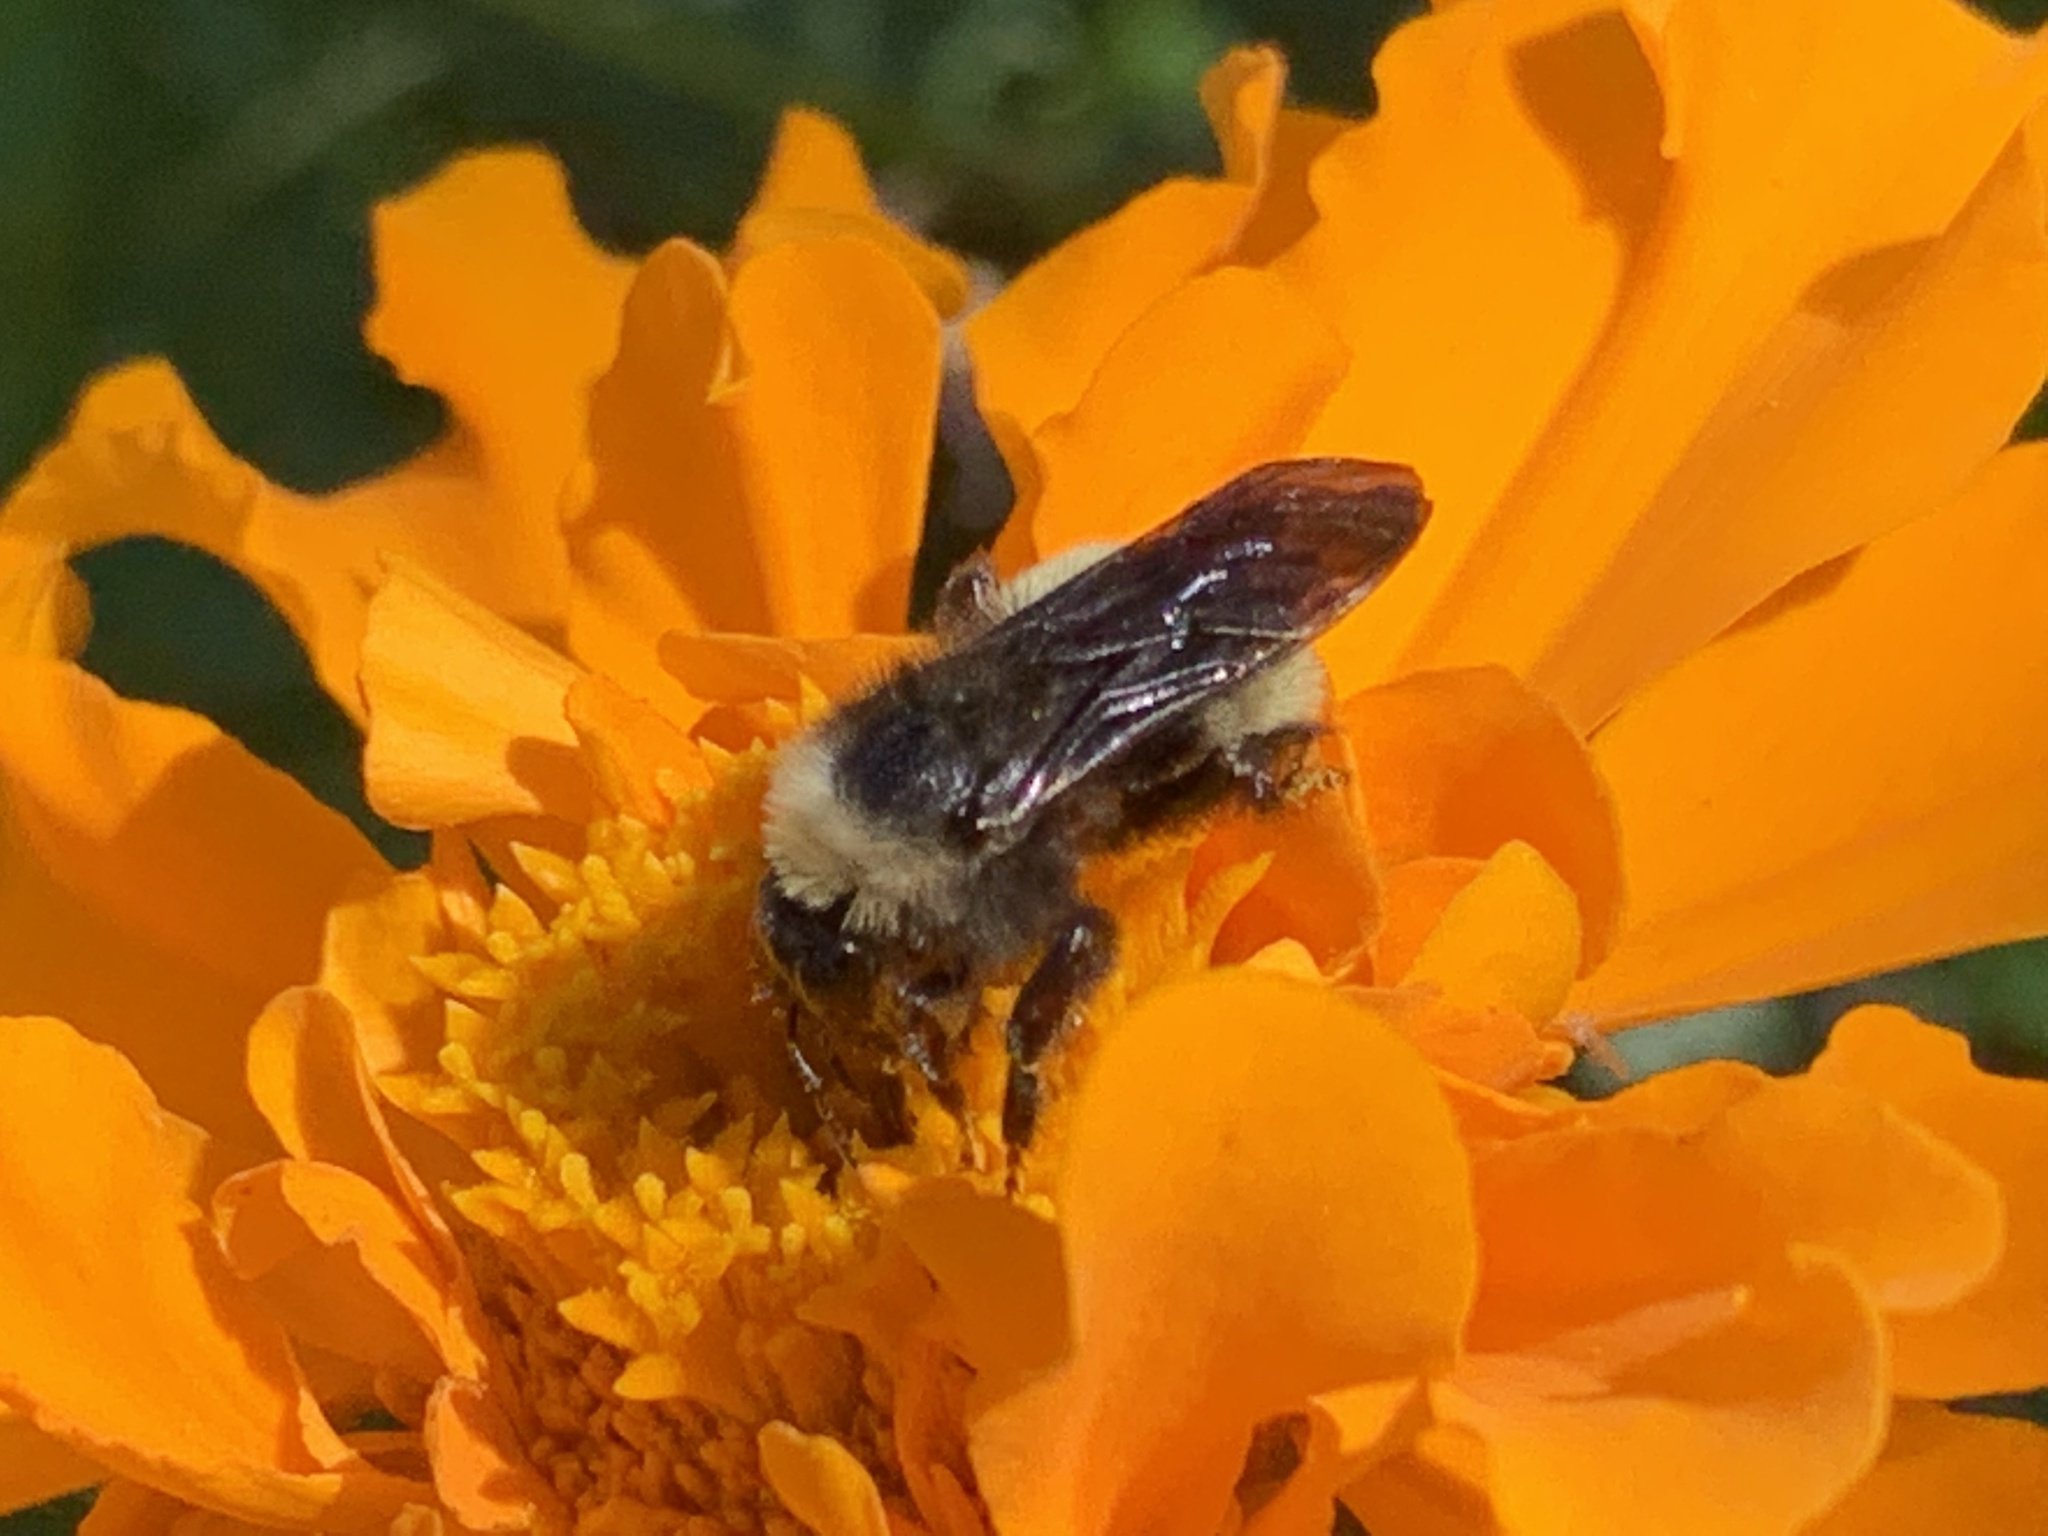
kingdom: Animalia
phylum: Arthropoda
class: Insecta
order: Hymenoptera
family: Apidae
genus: Bombus
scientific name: Bombus pensylvanicus
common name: Bumble bee
